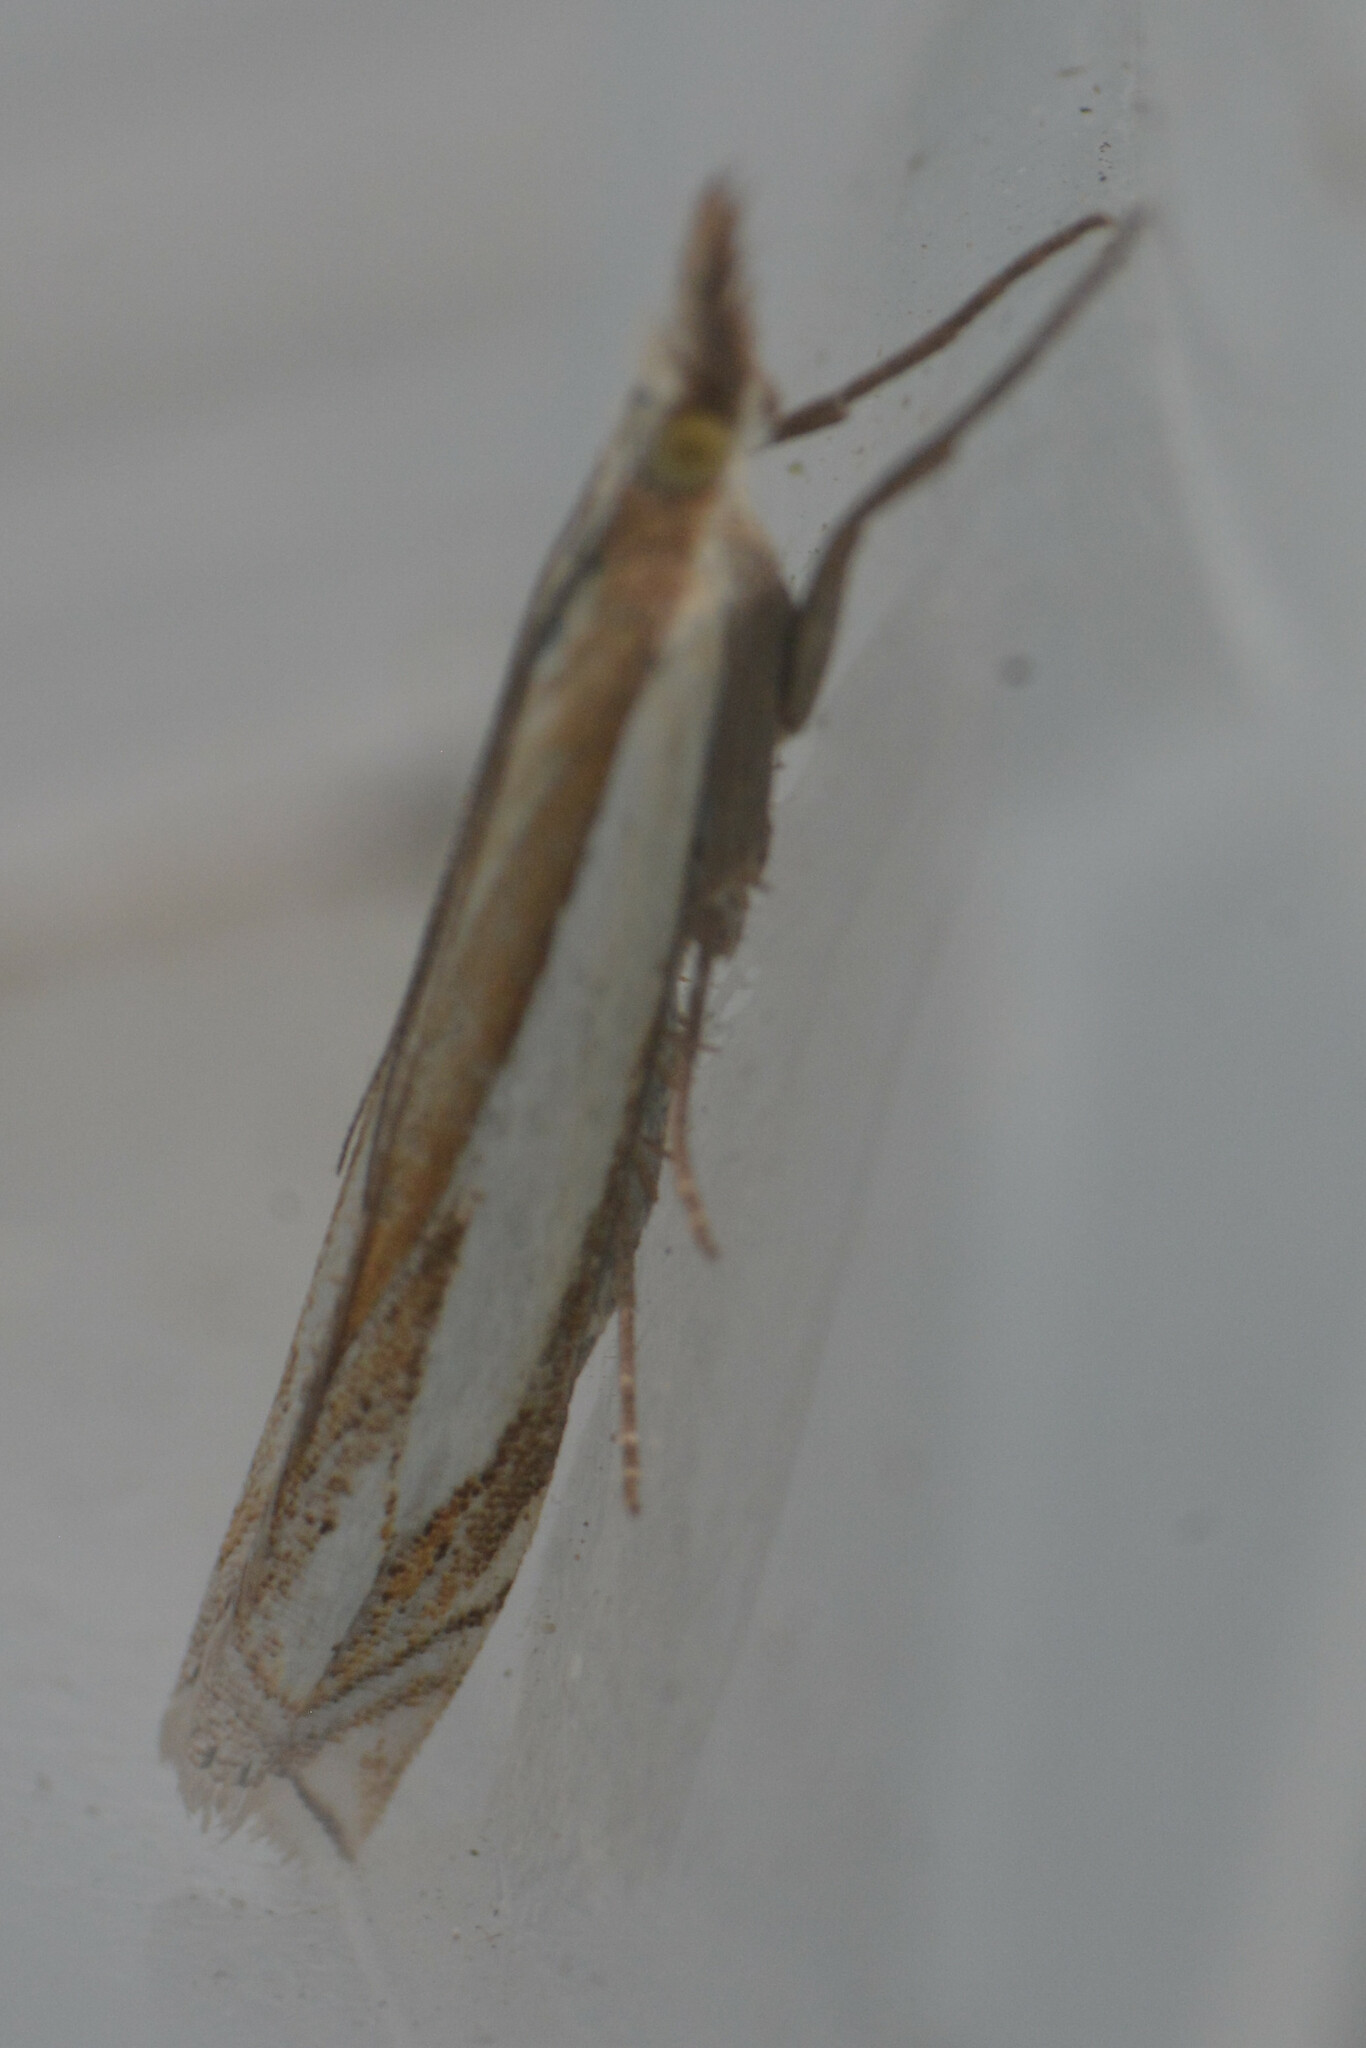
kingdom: Animalia
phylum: Arthropoda
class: Insecta
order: Lepidoptera
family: Crambidae
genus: Crambus
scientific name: Crambus pascuella
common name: Inlaid grass-veneer
